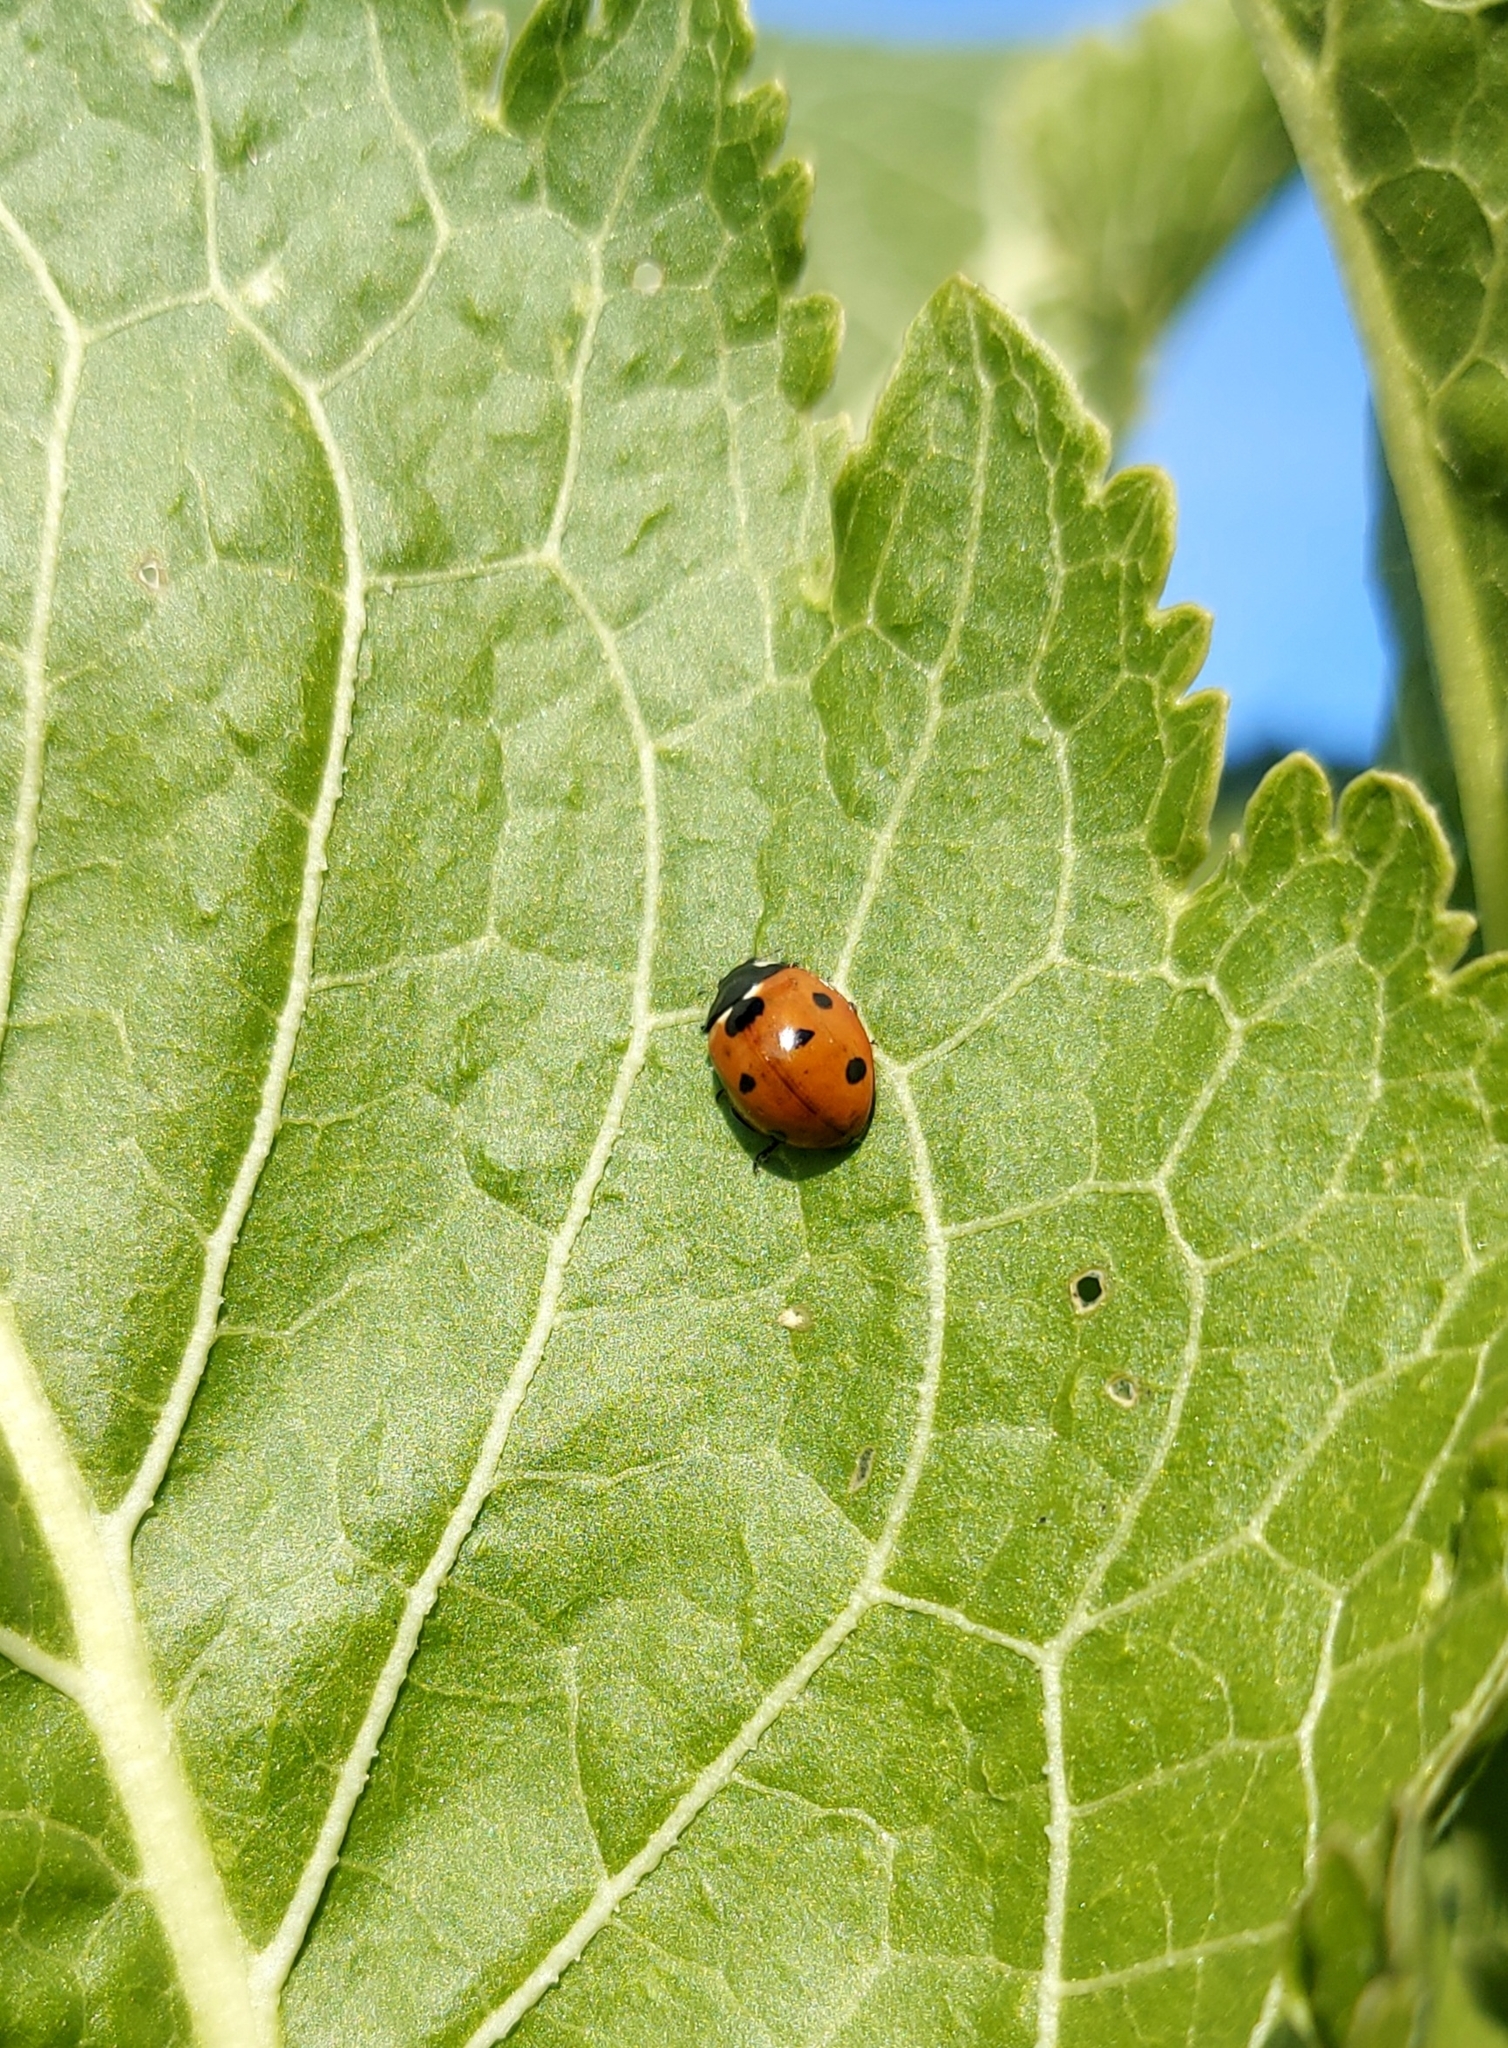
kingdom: Animalia
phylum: Arthropoda
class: Insecta
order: Coleoptera
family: Coccinellidae
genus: Coccinella
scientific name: Coccinella septempunctata
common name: Sevenspotted lady beetle
